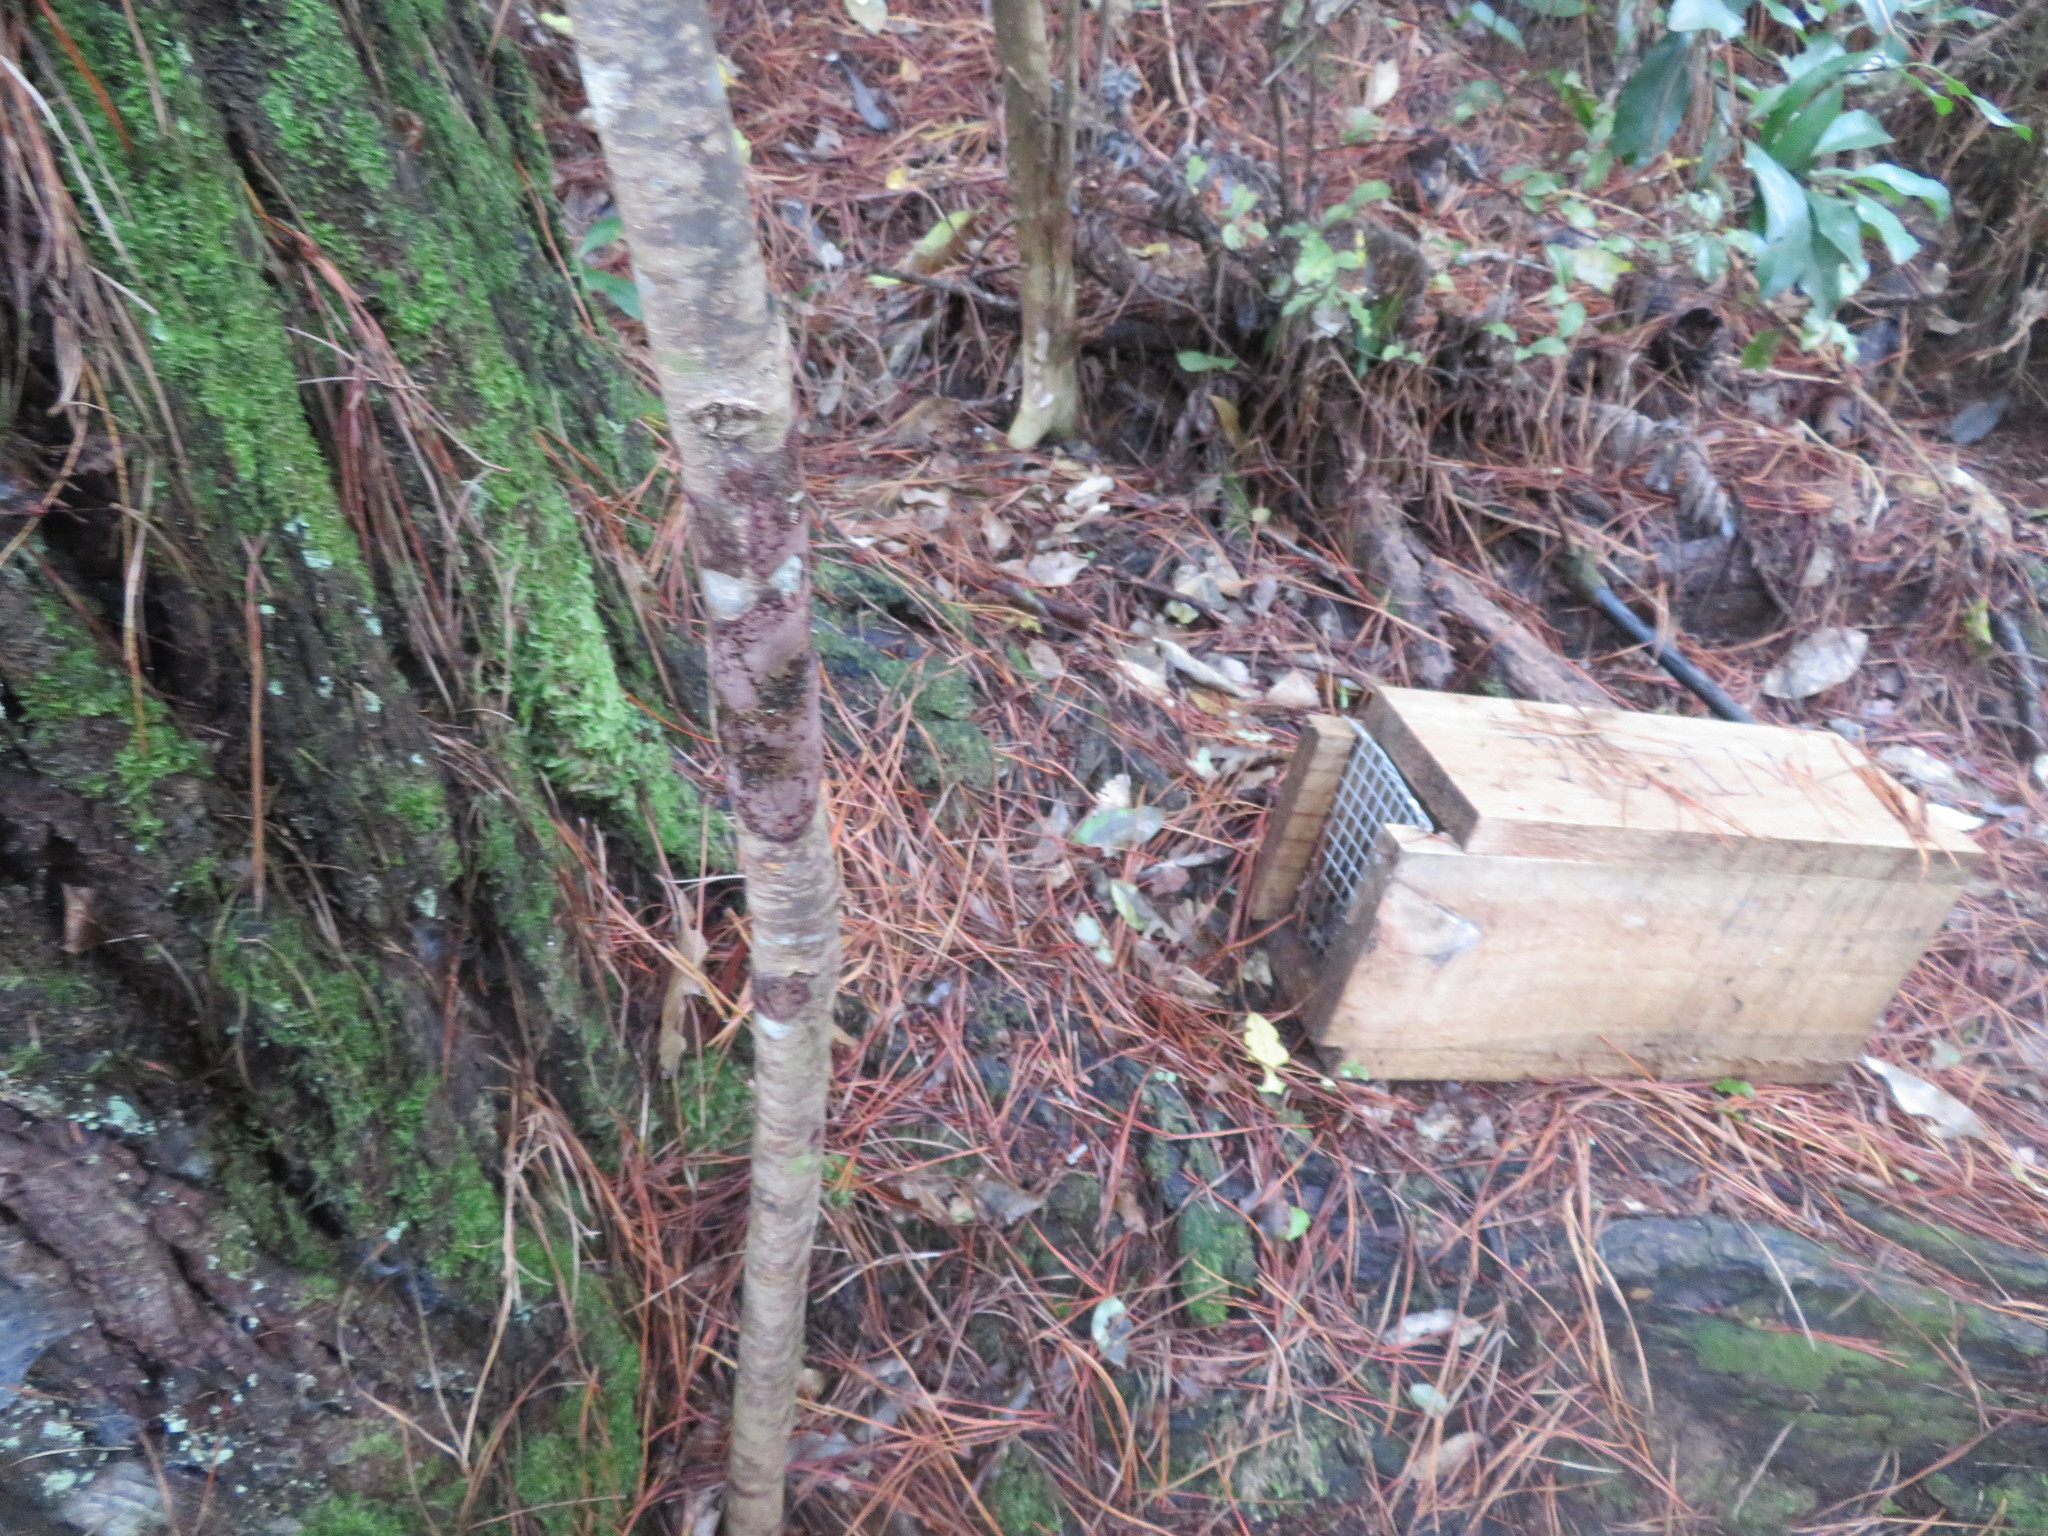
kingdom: Plantae
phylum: Tracheophyta
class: Pinopsida
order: Pinales
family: Pinaceae
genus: Pinus
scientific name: Pinus radiata
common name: Monterey pine
